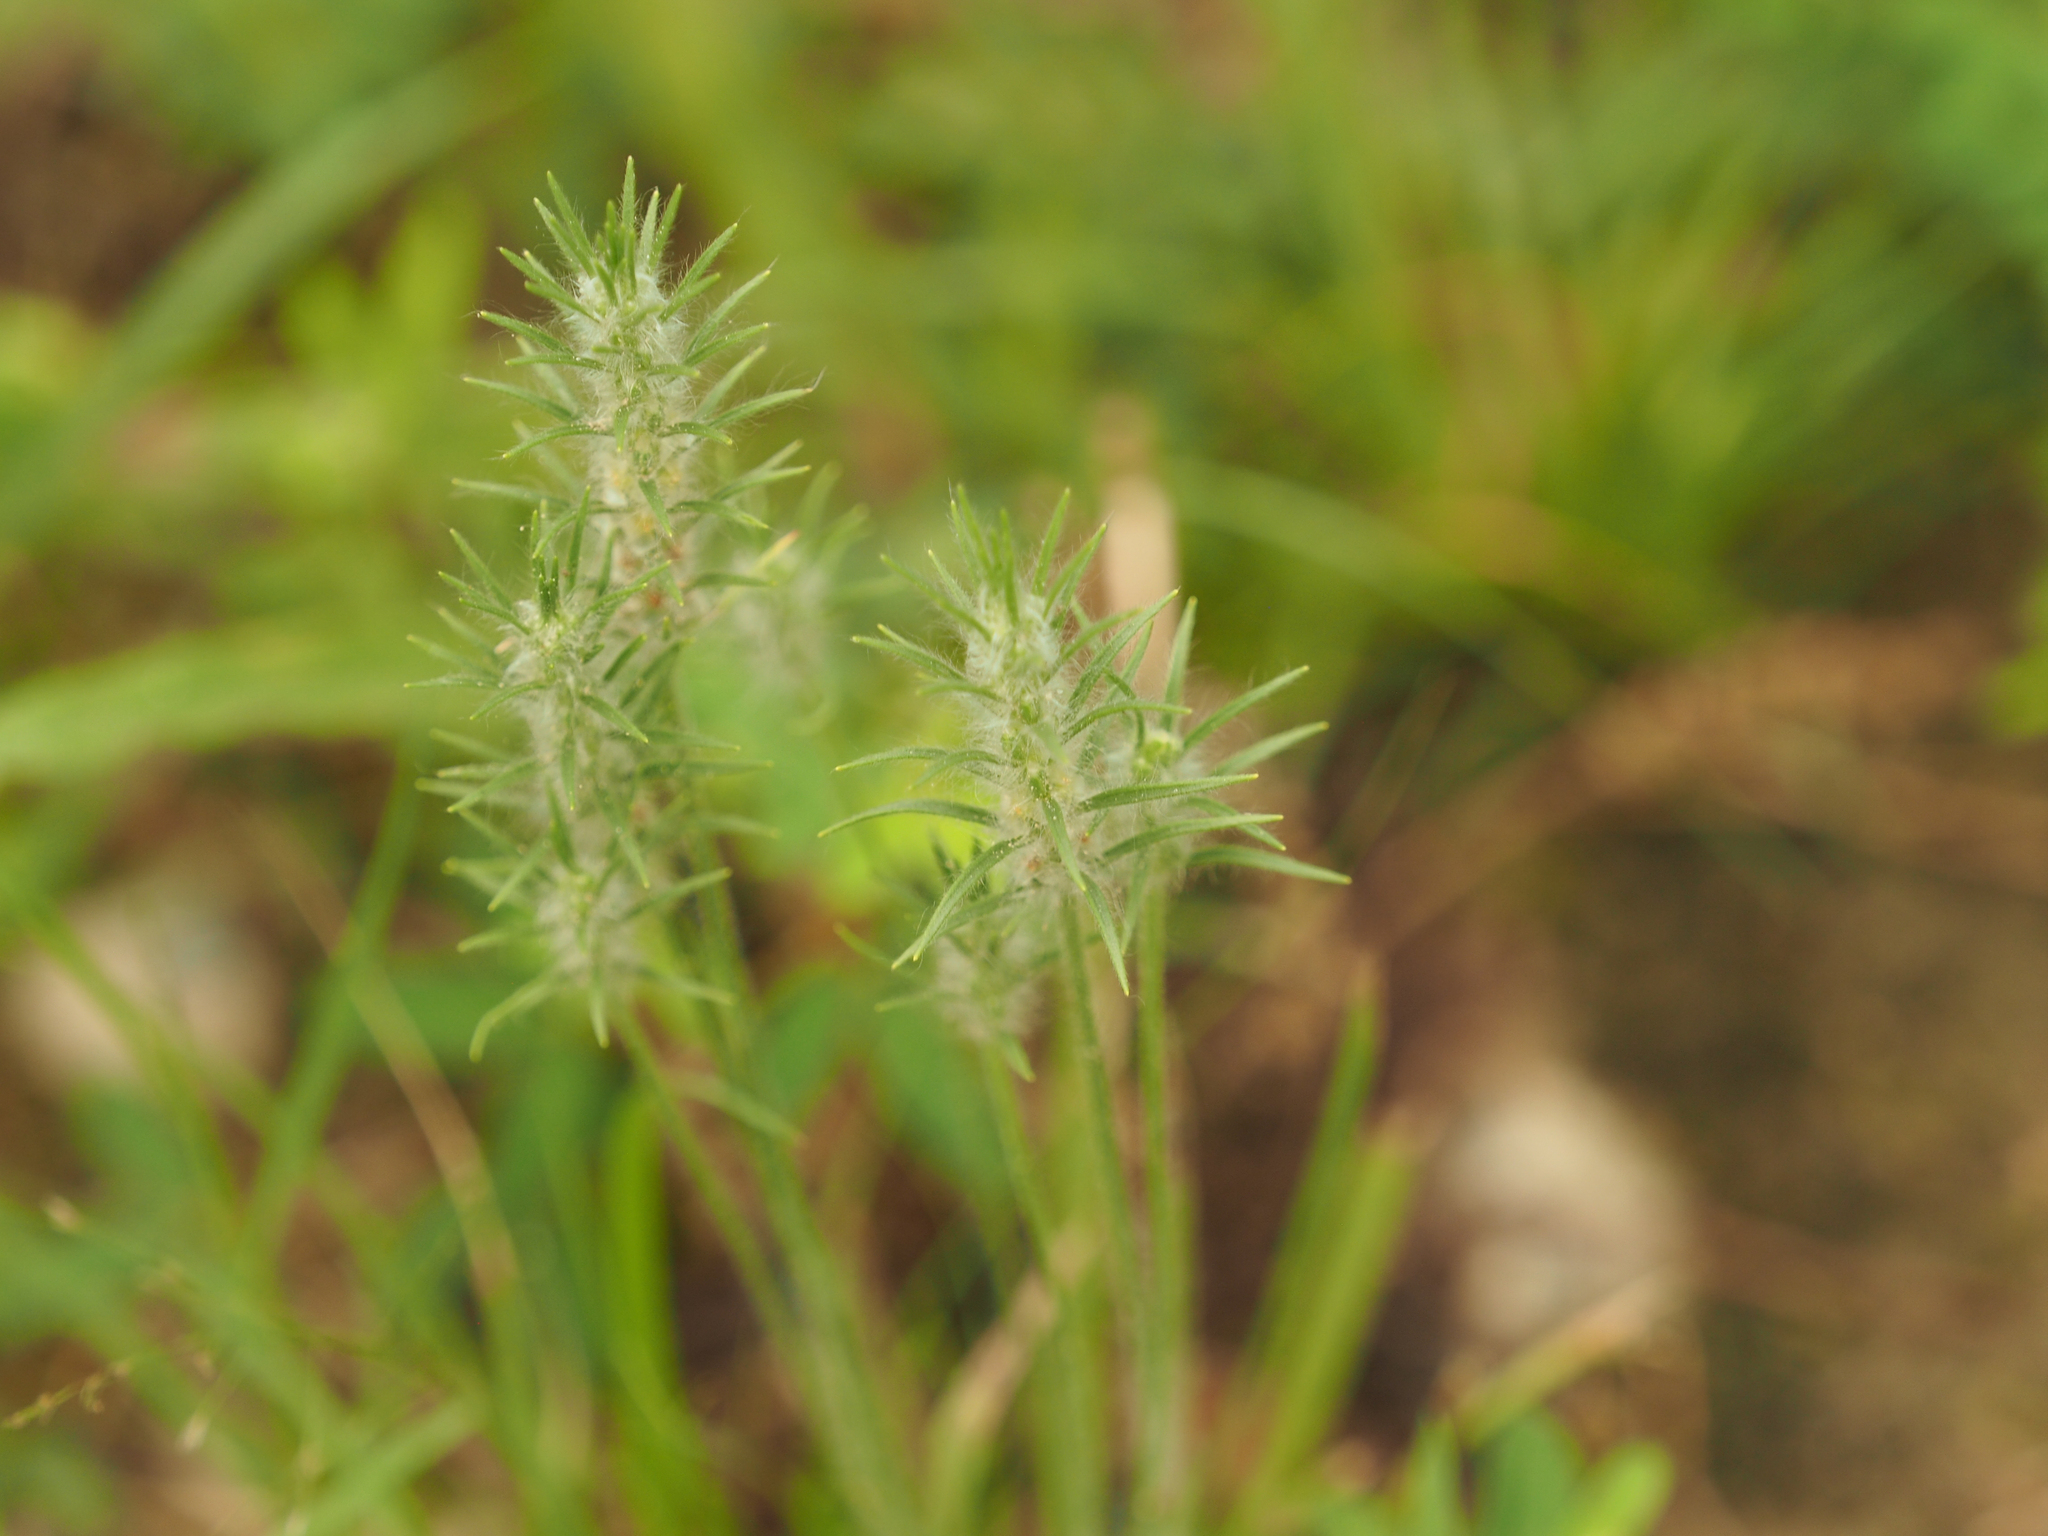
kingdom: Plantae
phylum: Tracheophyta
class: Magnoliopsida
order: Lamiales
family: Plantaginaceae
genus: Plantago
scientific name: Plantago aristata
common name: Bracted plantain
